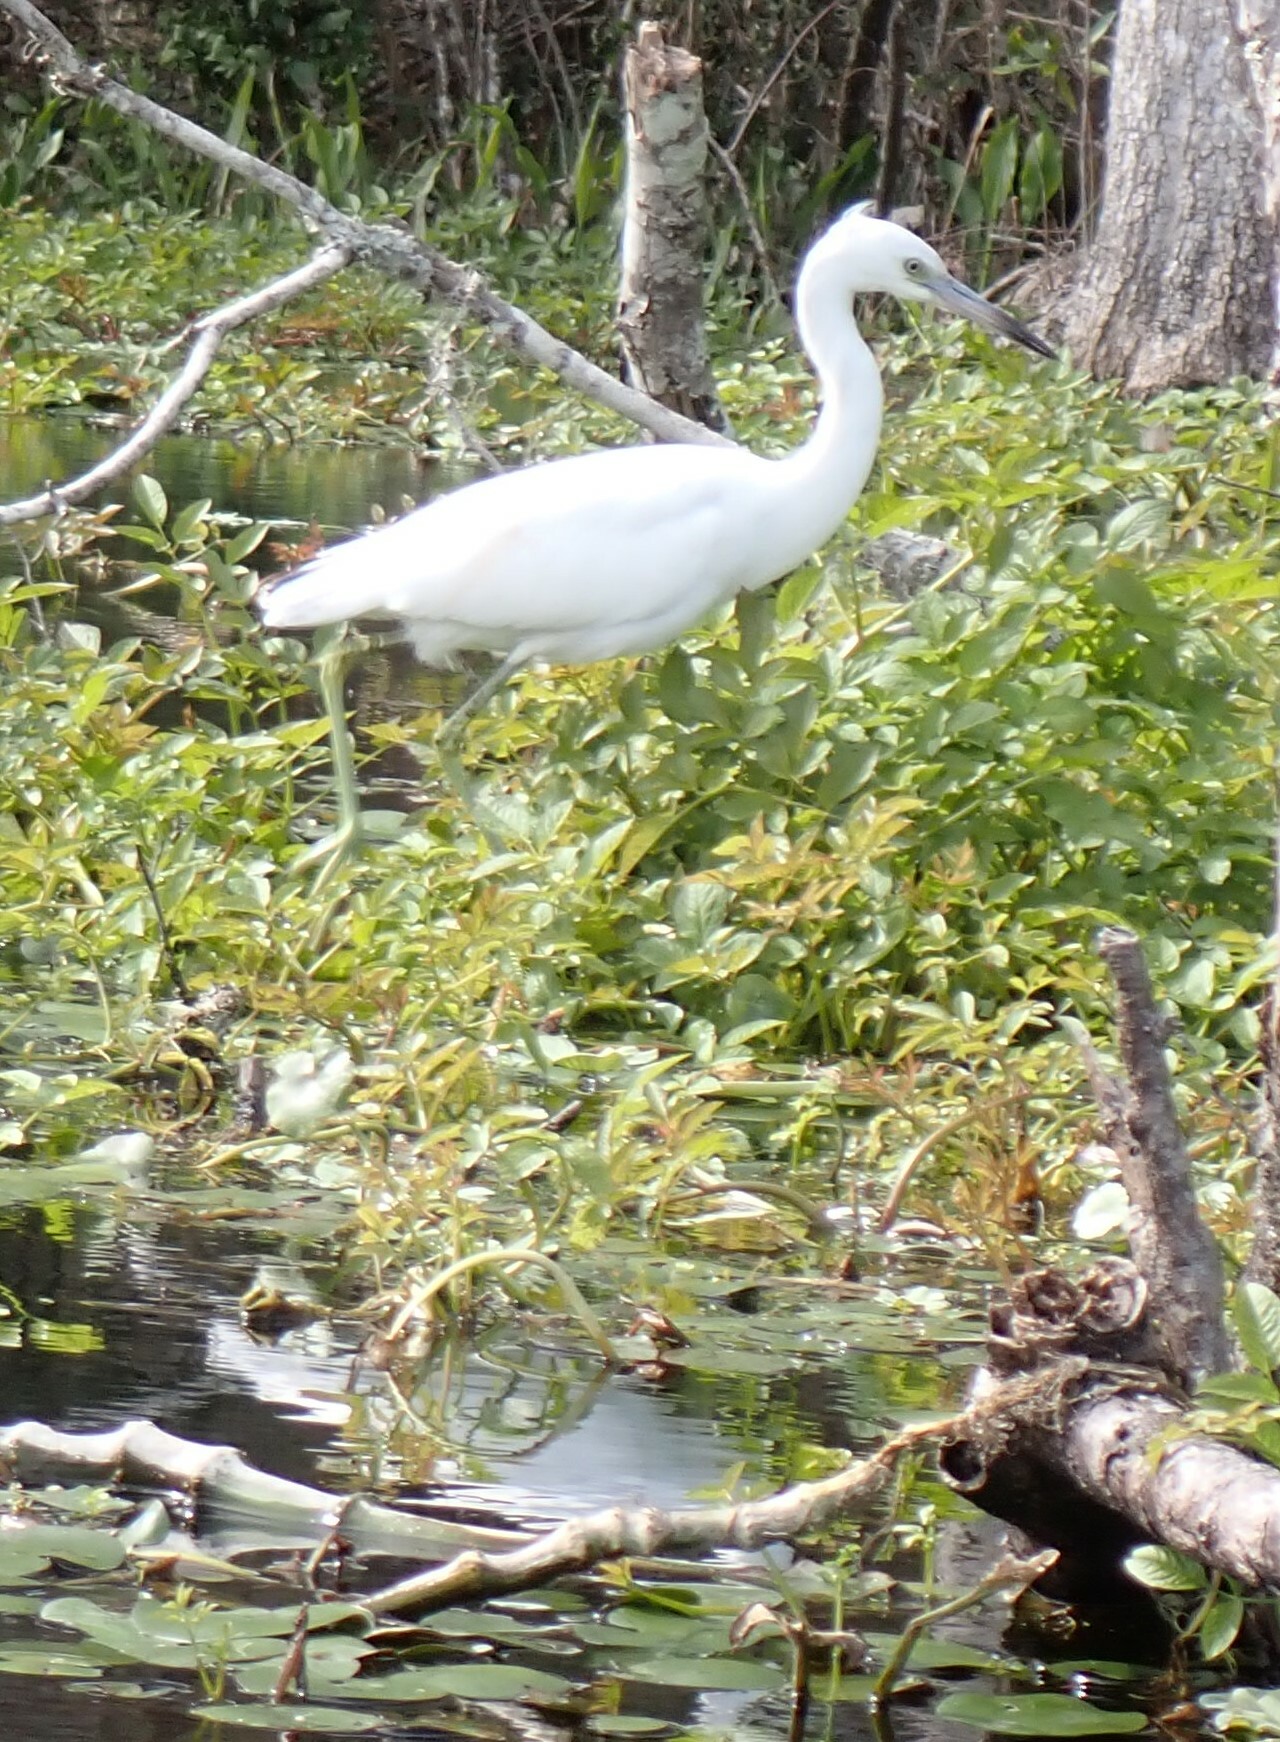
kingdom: Animalia
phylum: Chordata
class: Aves
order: Pelecaniformes
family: Ardeidae
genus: Egretta
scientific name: Egretta caerulea
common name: Little blue heron
